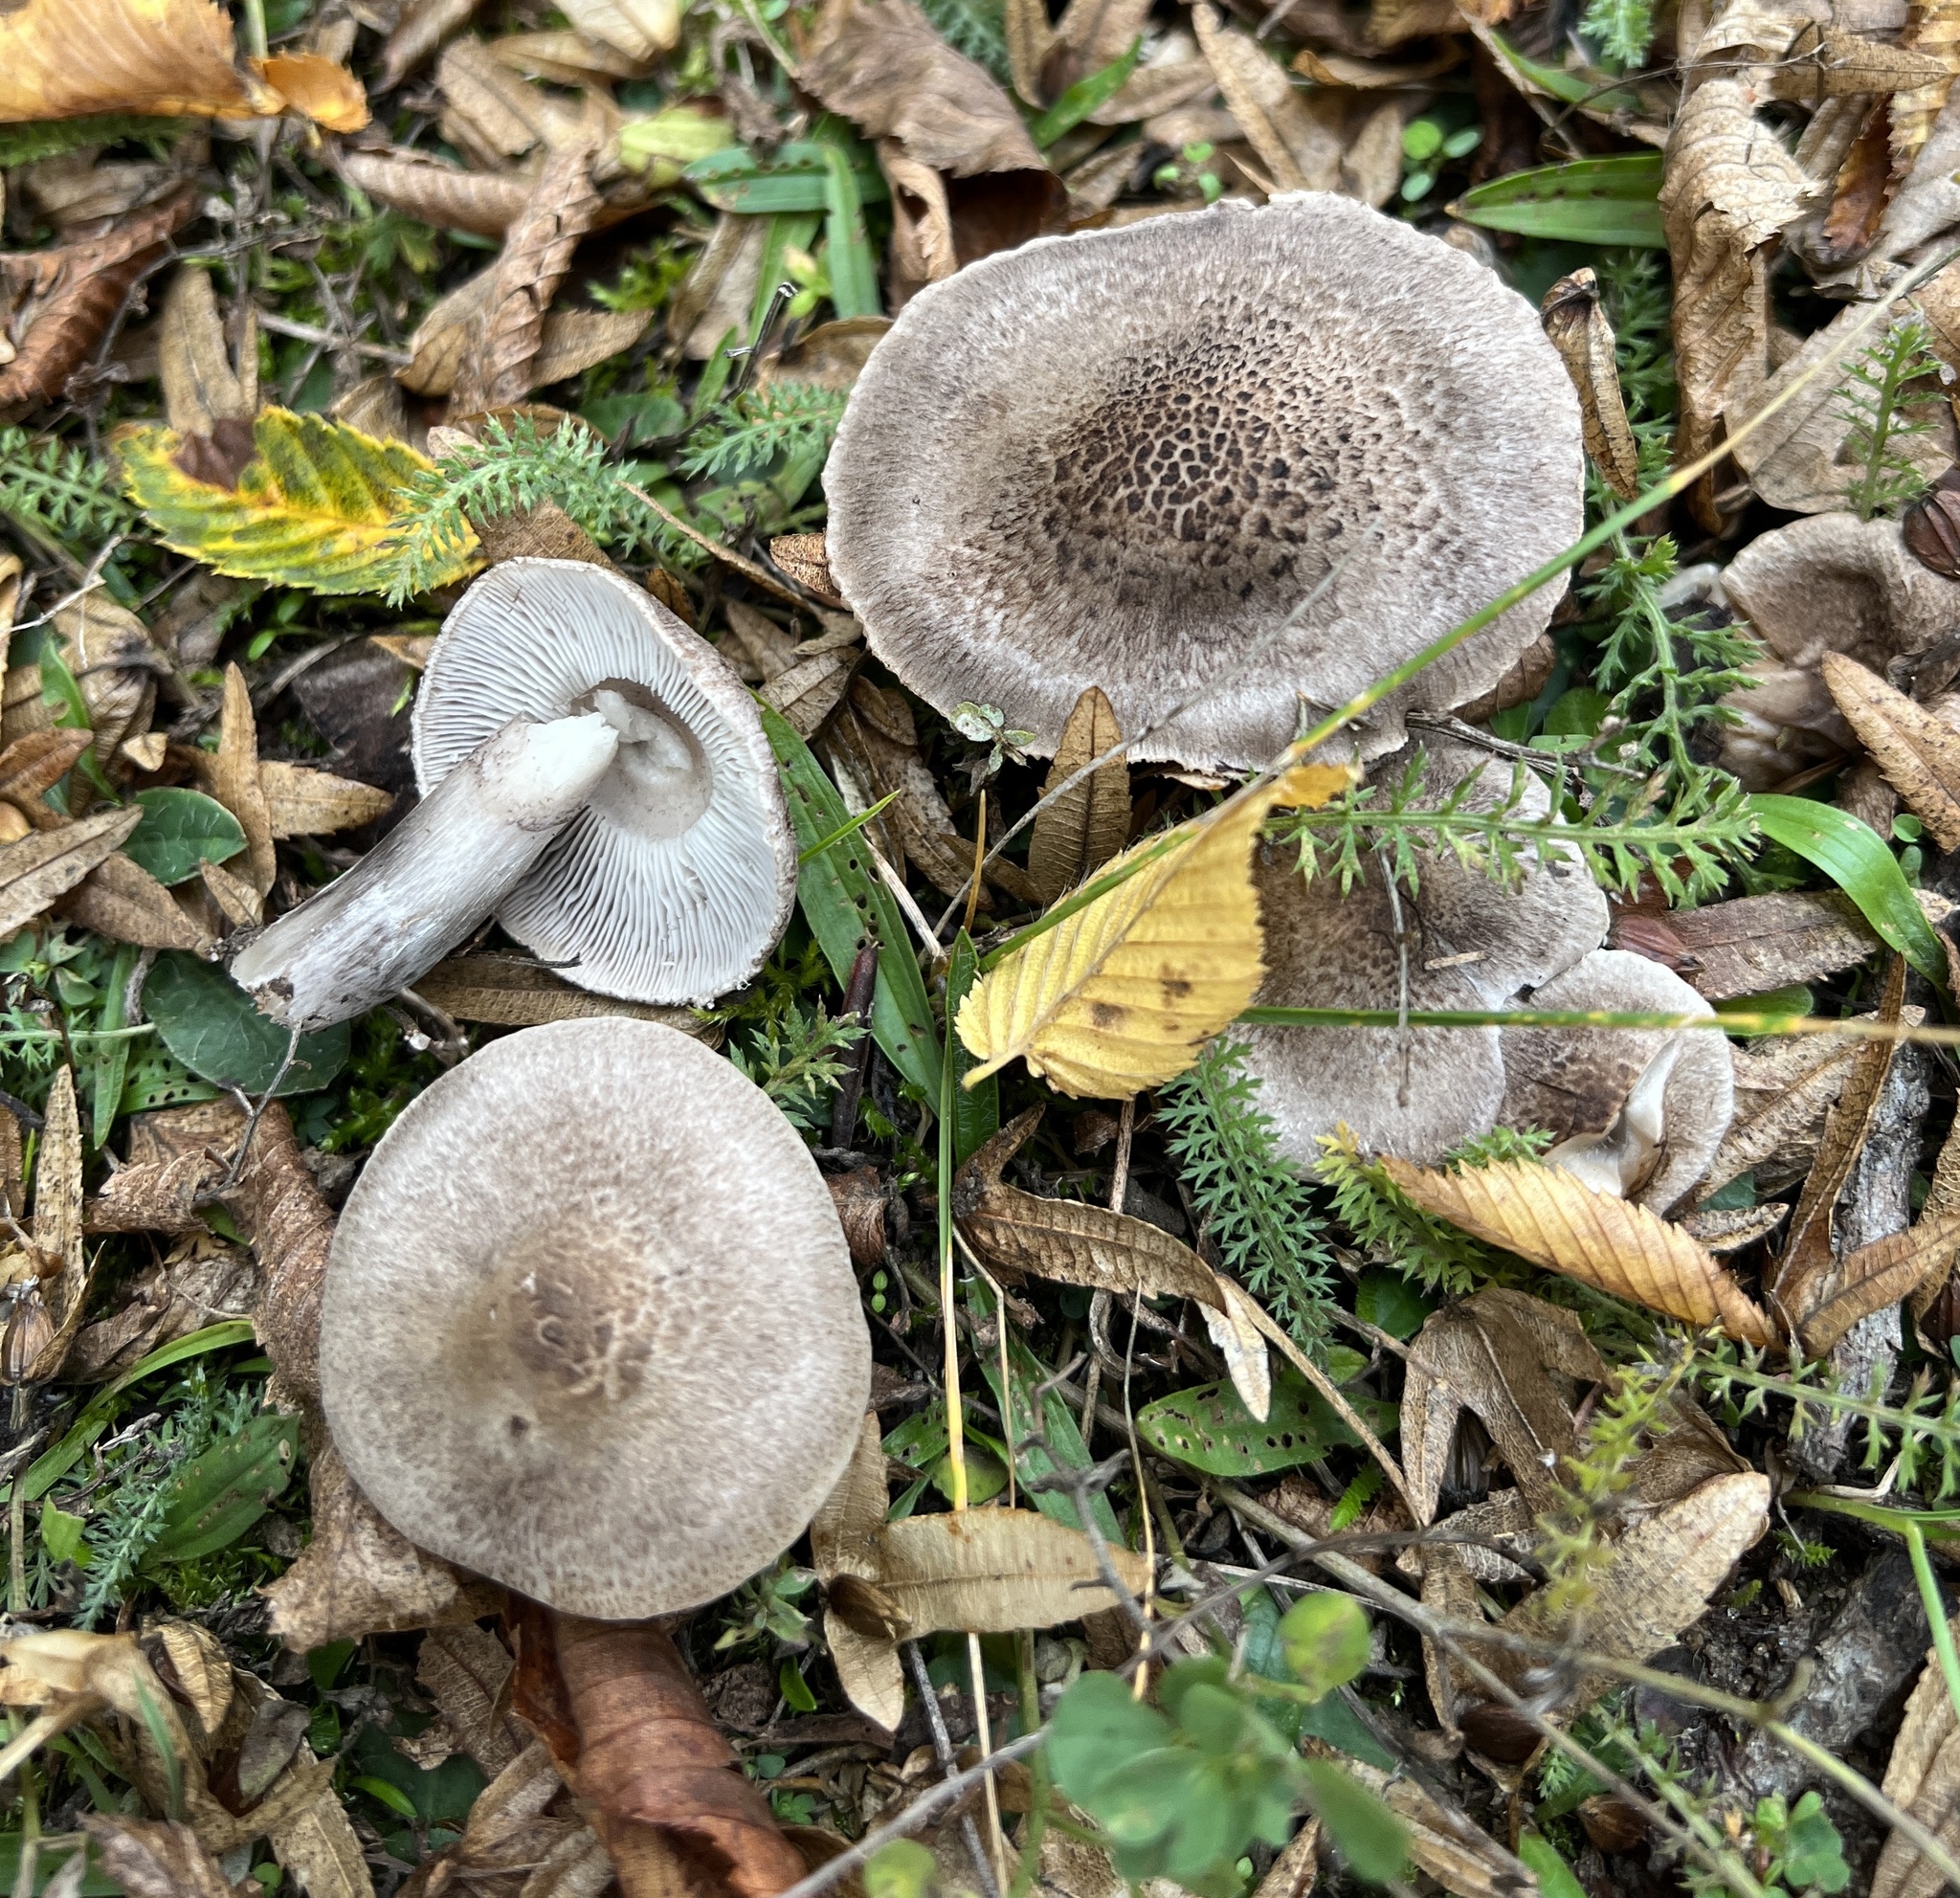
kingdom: Fungi
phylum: Basidiomycota
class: Agaricomycetes
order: Agaricales
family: Tricholomataceae
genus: Tricholoma
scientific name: Tricholoma scalpturatum
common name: Yellowing knight
